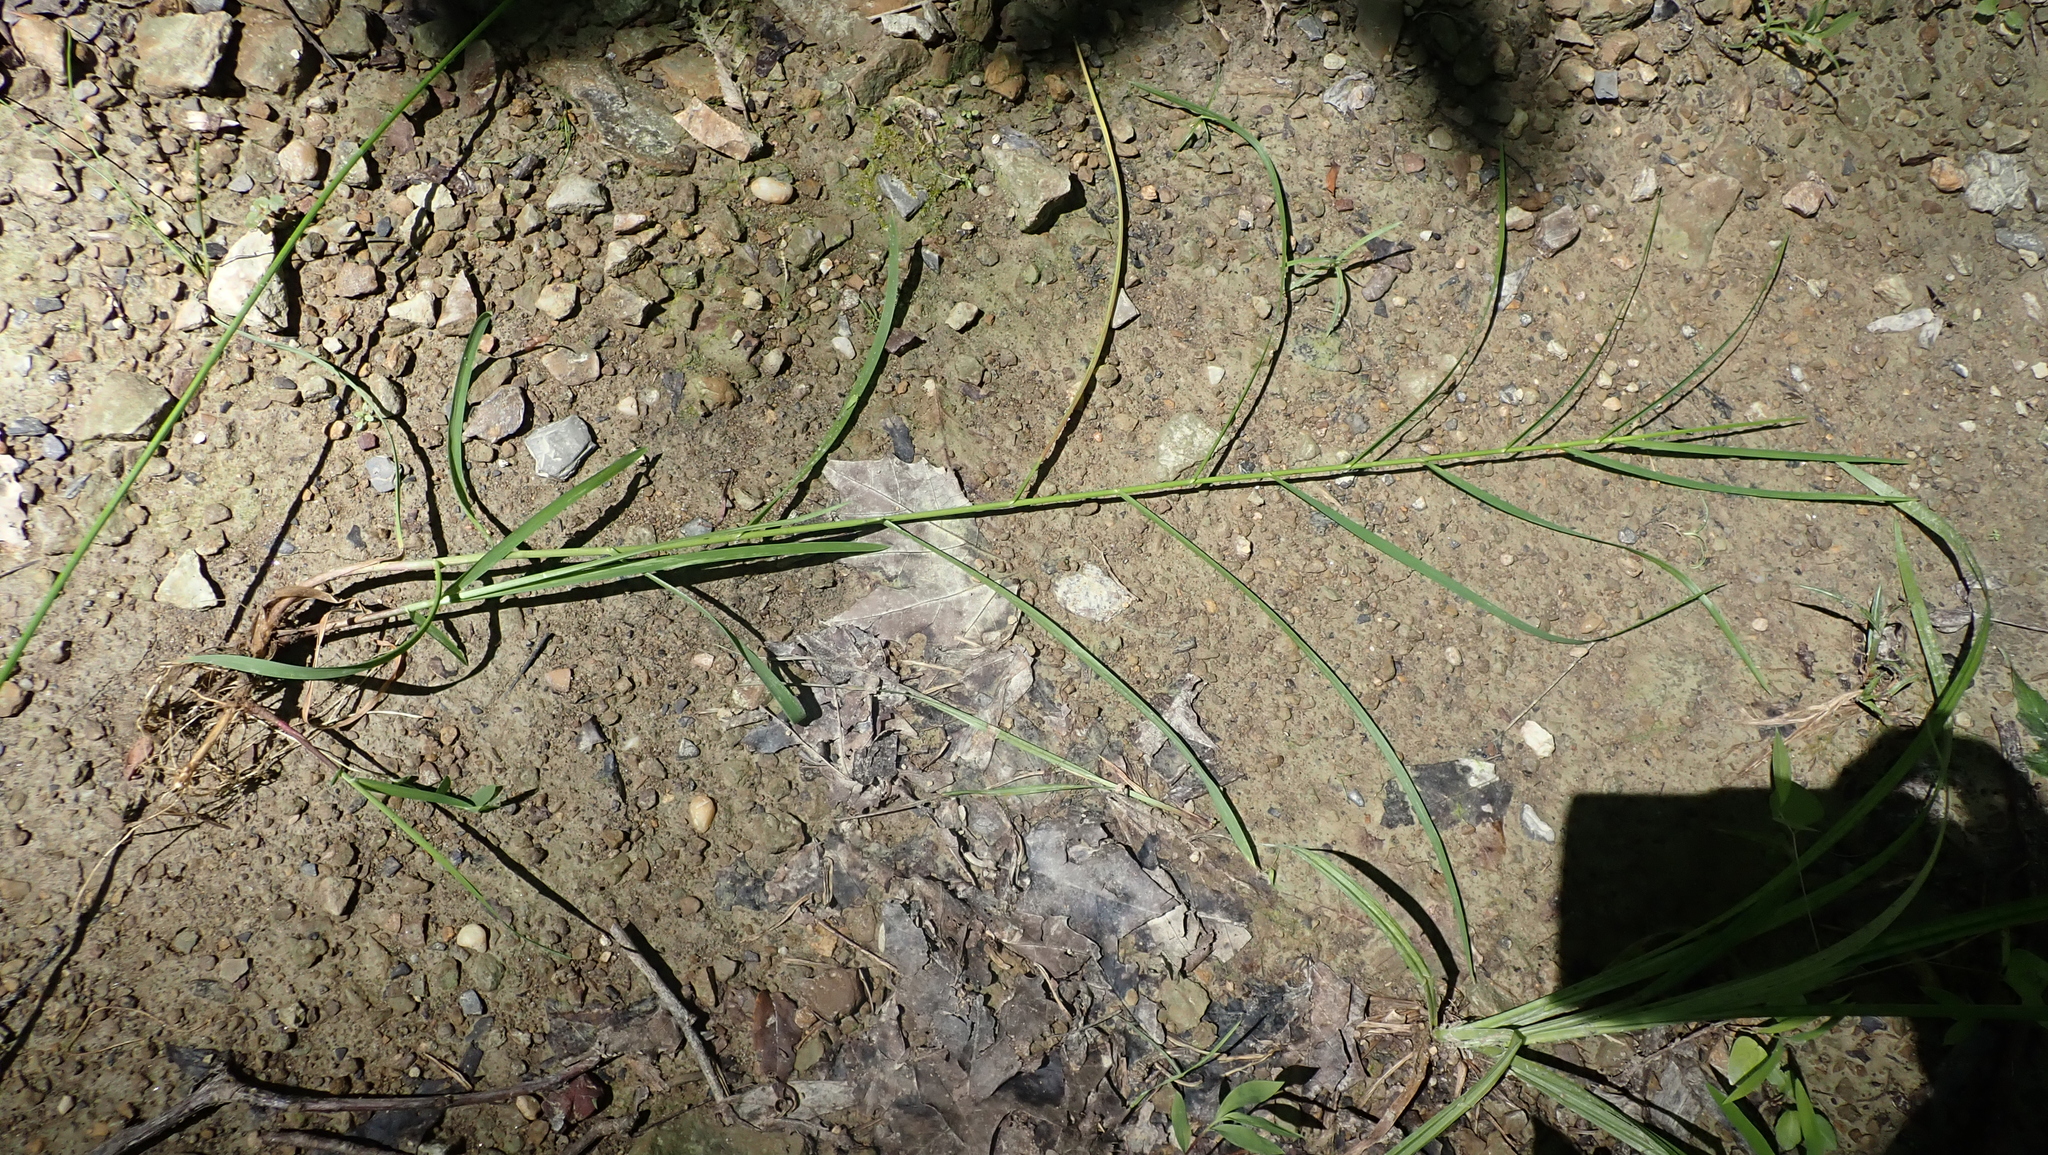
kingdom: Plantae
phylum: Tracheophyta
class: Liliopsida
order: Poales
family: Poaceae
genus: Glyceria
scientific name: Glyceria striata
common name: Fowl manna grass
